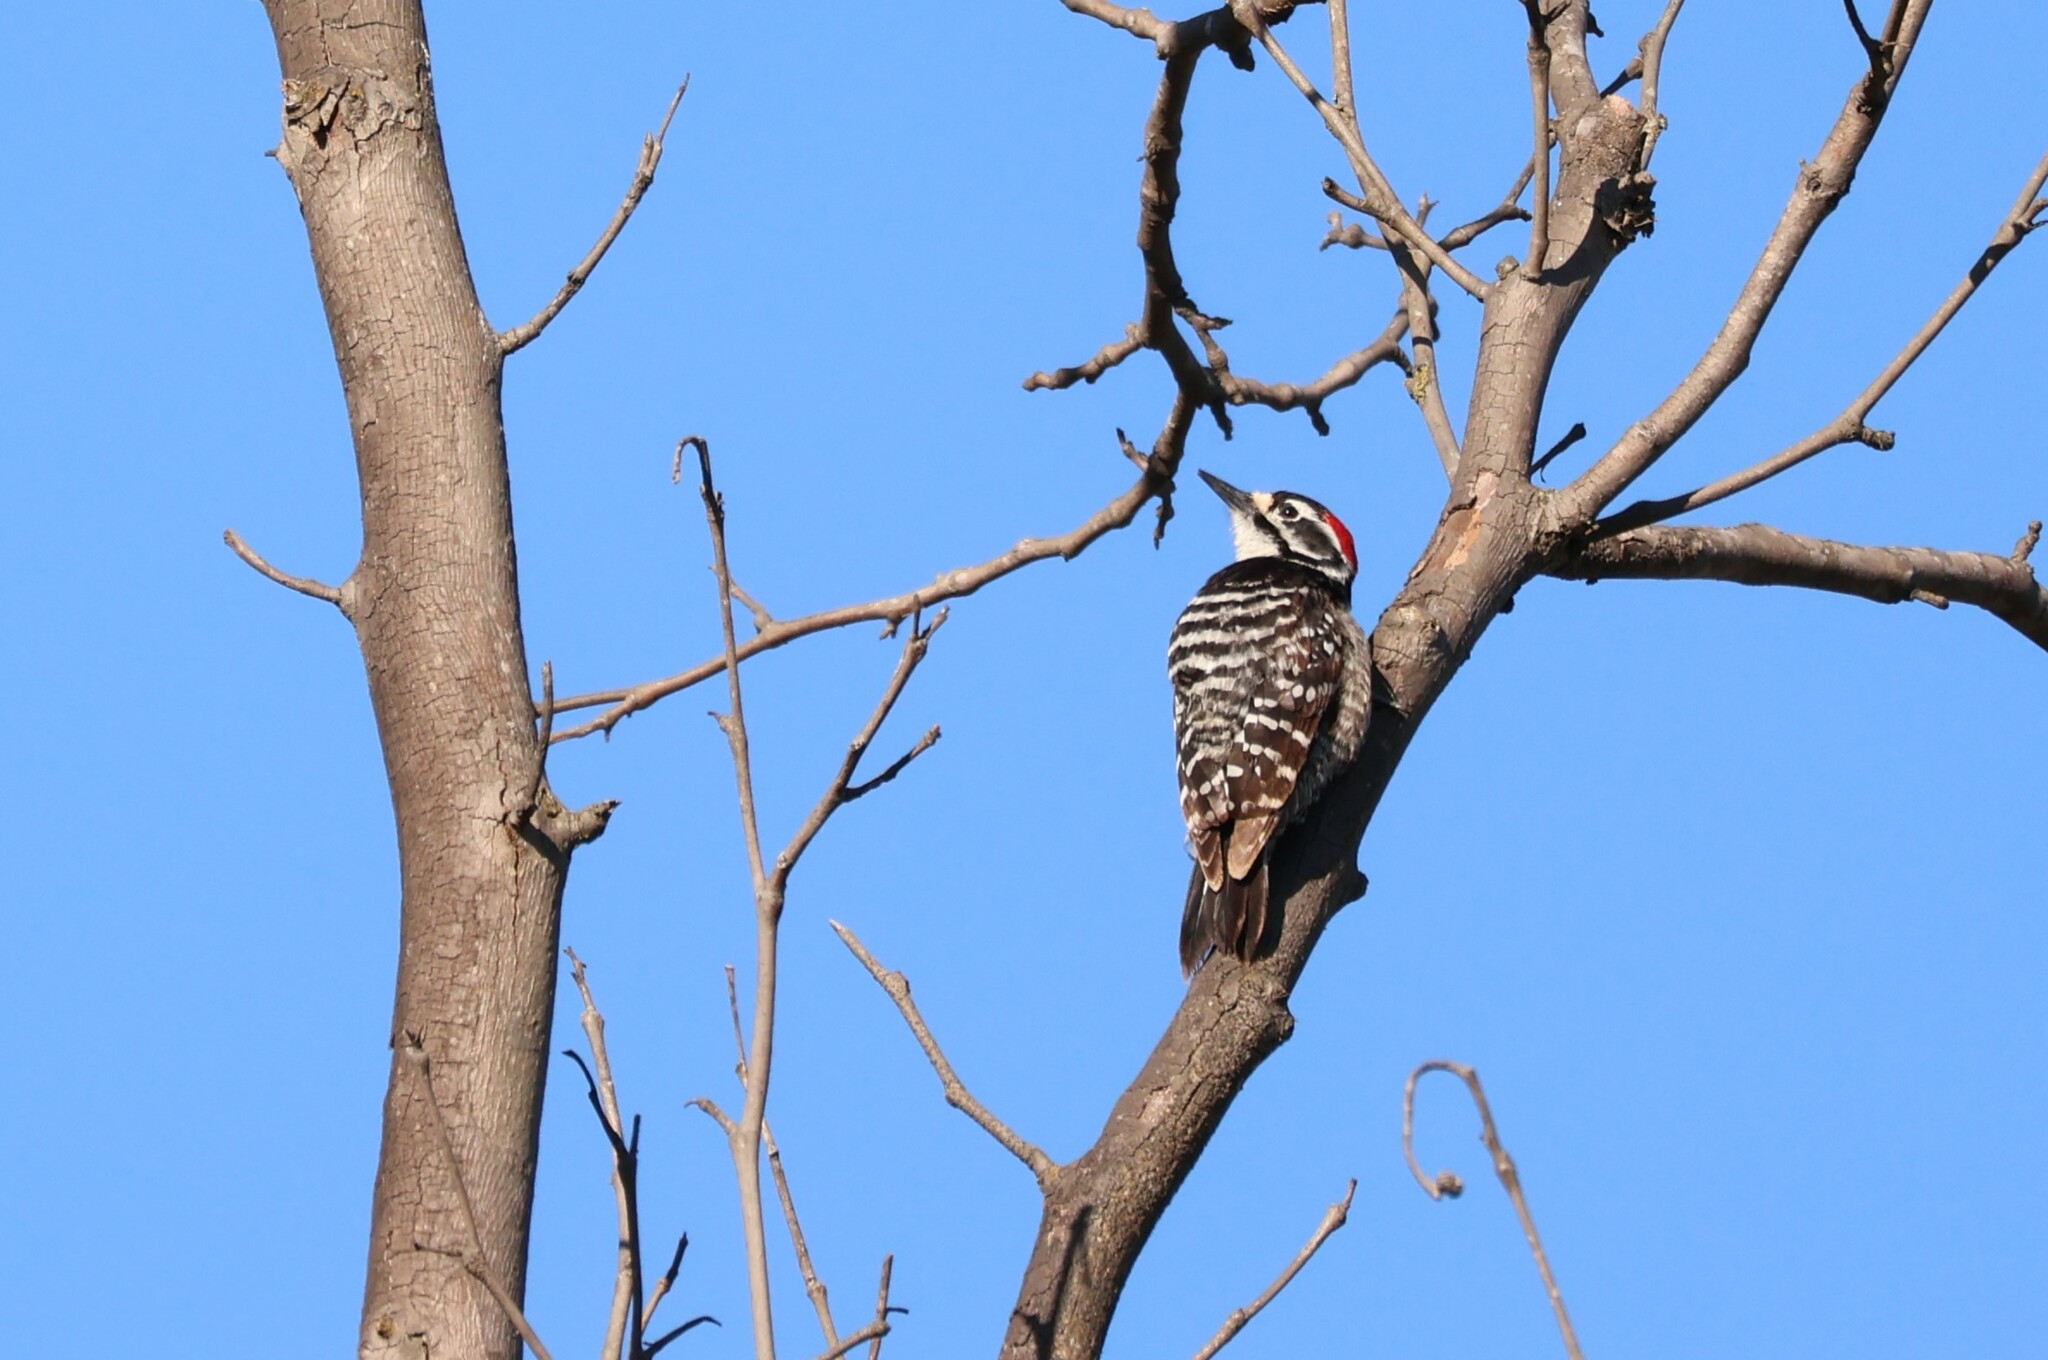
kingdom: Animalia
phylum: Chordata
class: Aves
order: Piciformes
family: Picidae
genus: Dryobates
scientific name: Dryobates nuttallii
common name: Nuttall's woodpecker
